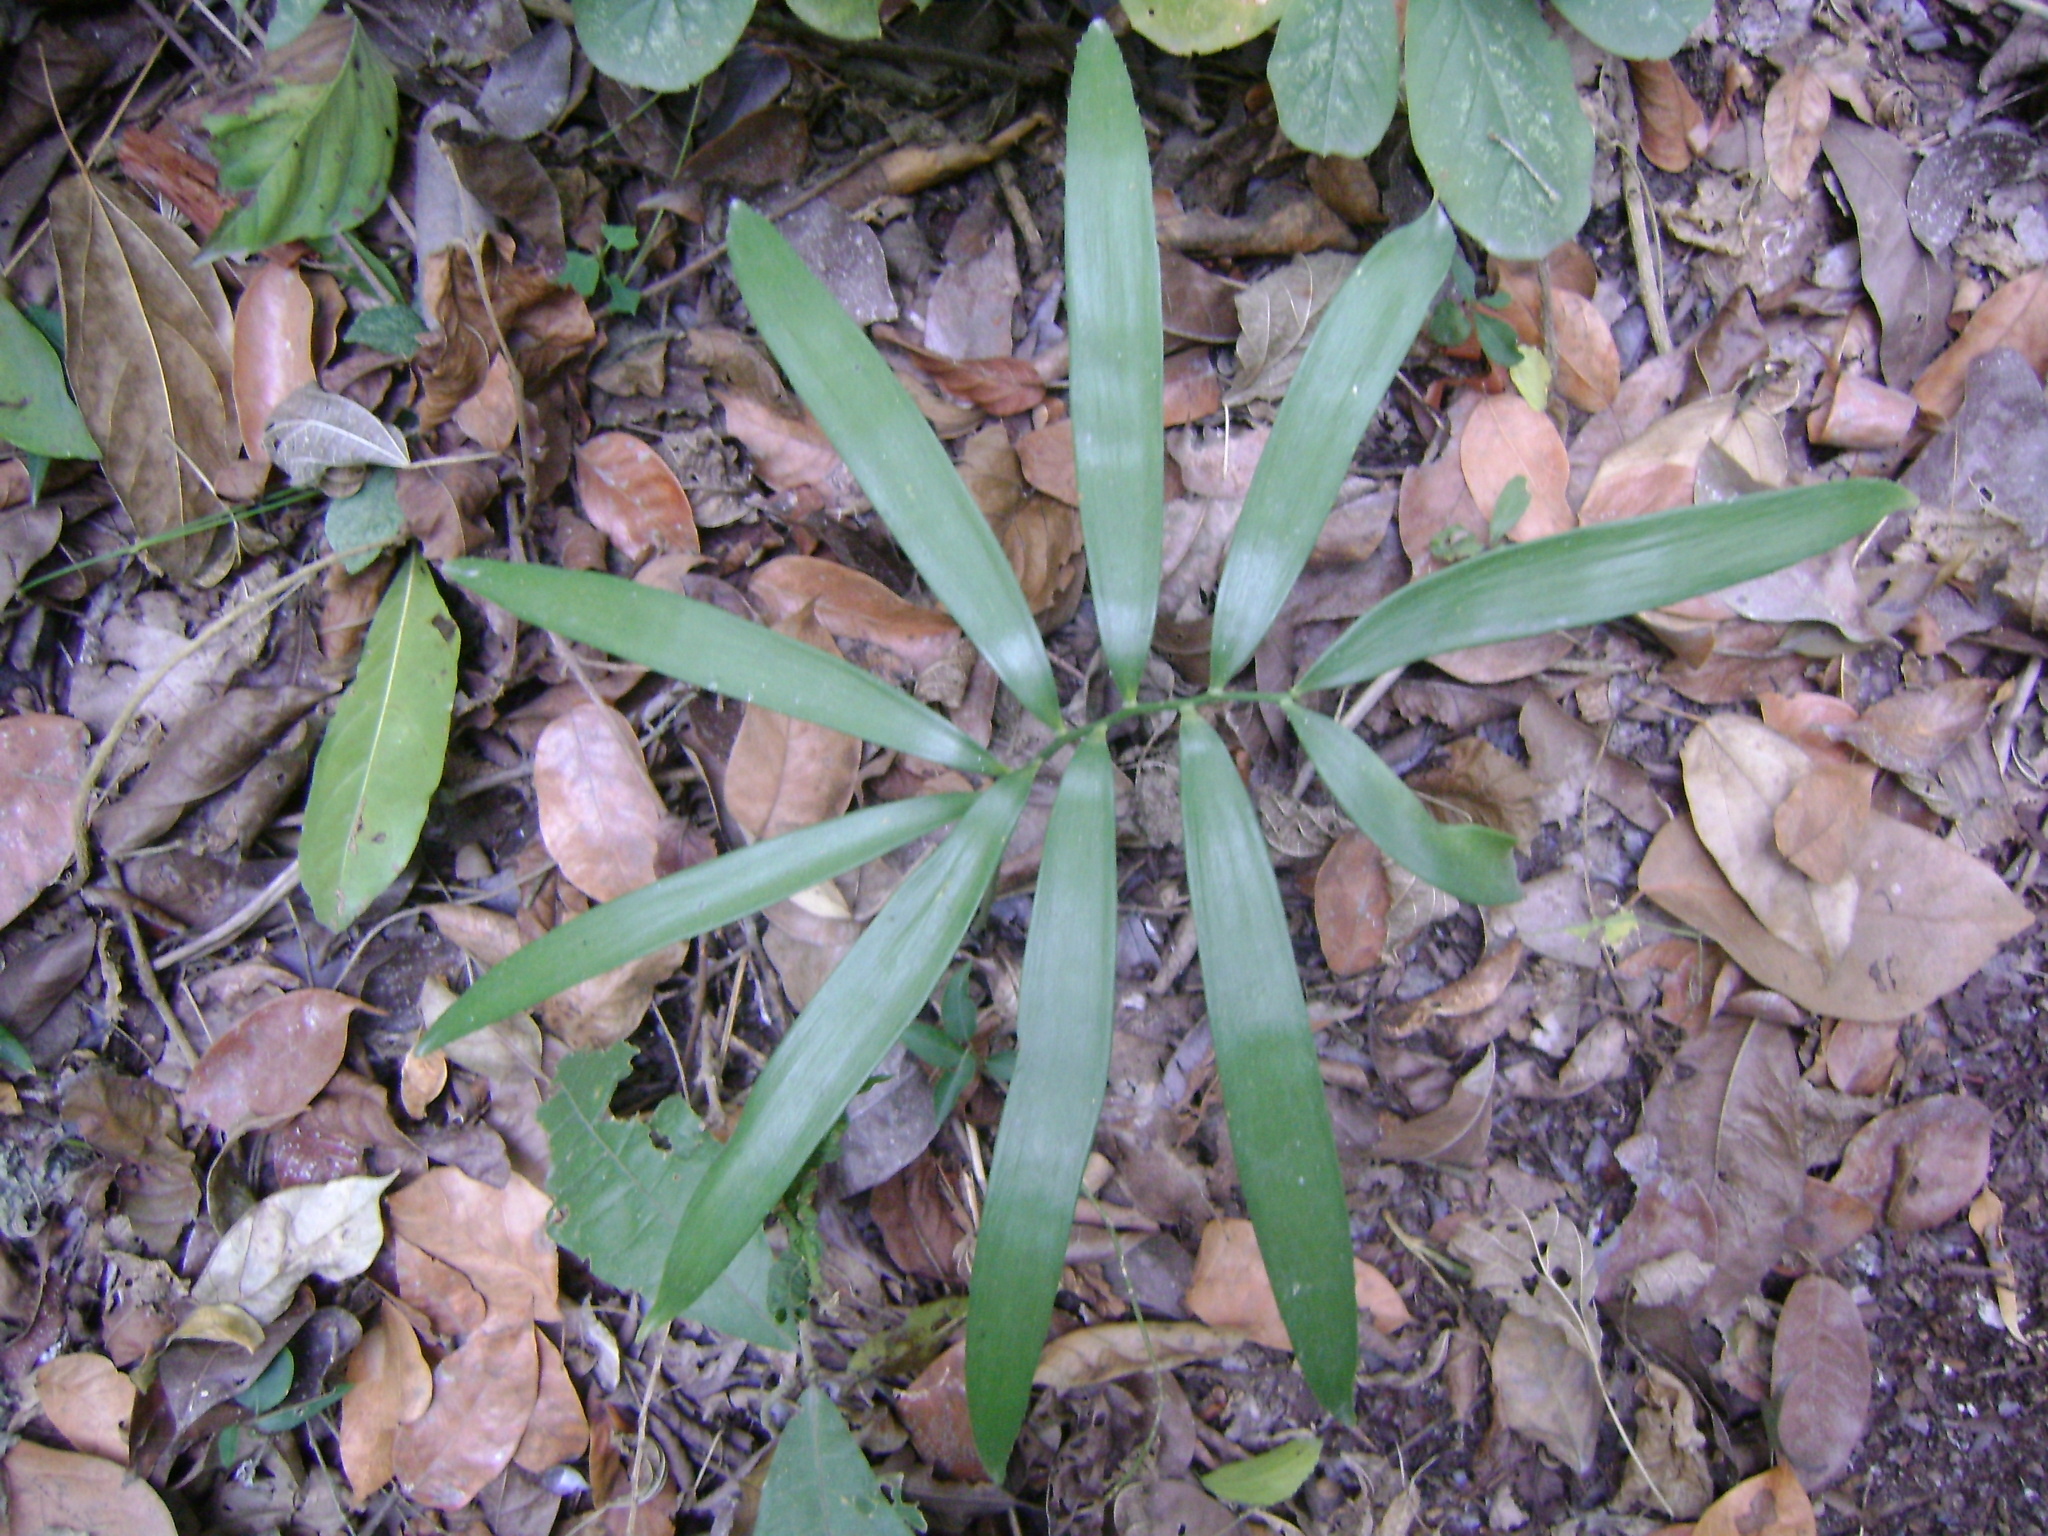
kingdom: Plantae
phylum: Tracheophyta
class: Cycadopsida
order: Cycadales
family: Zamiaceae
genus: Zamia
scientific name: Zamia loddigesii
